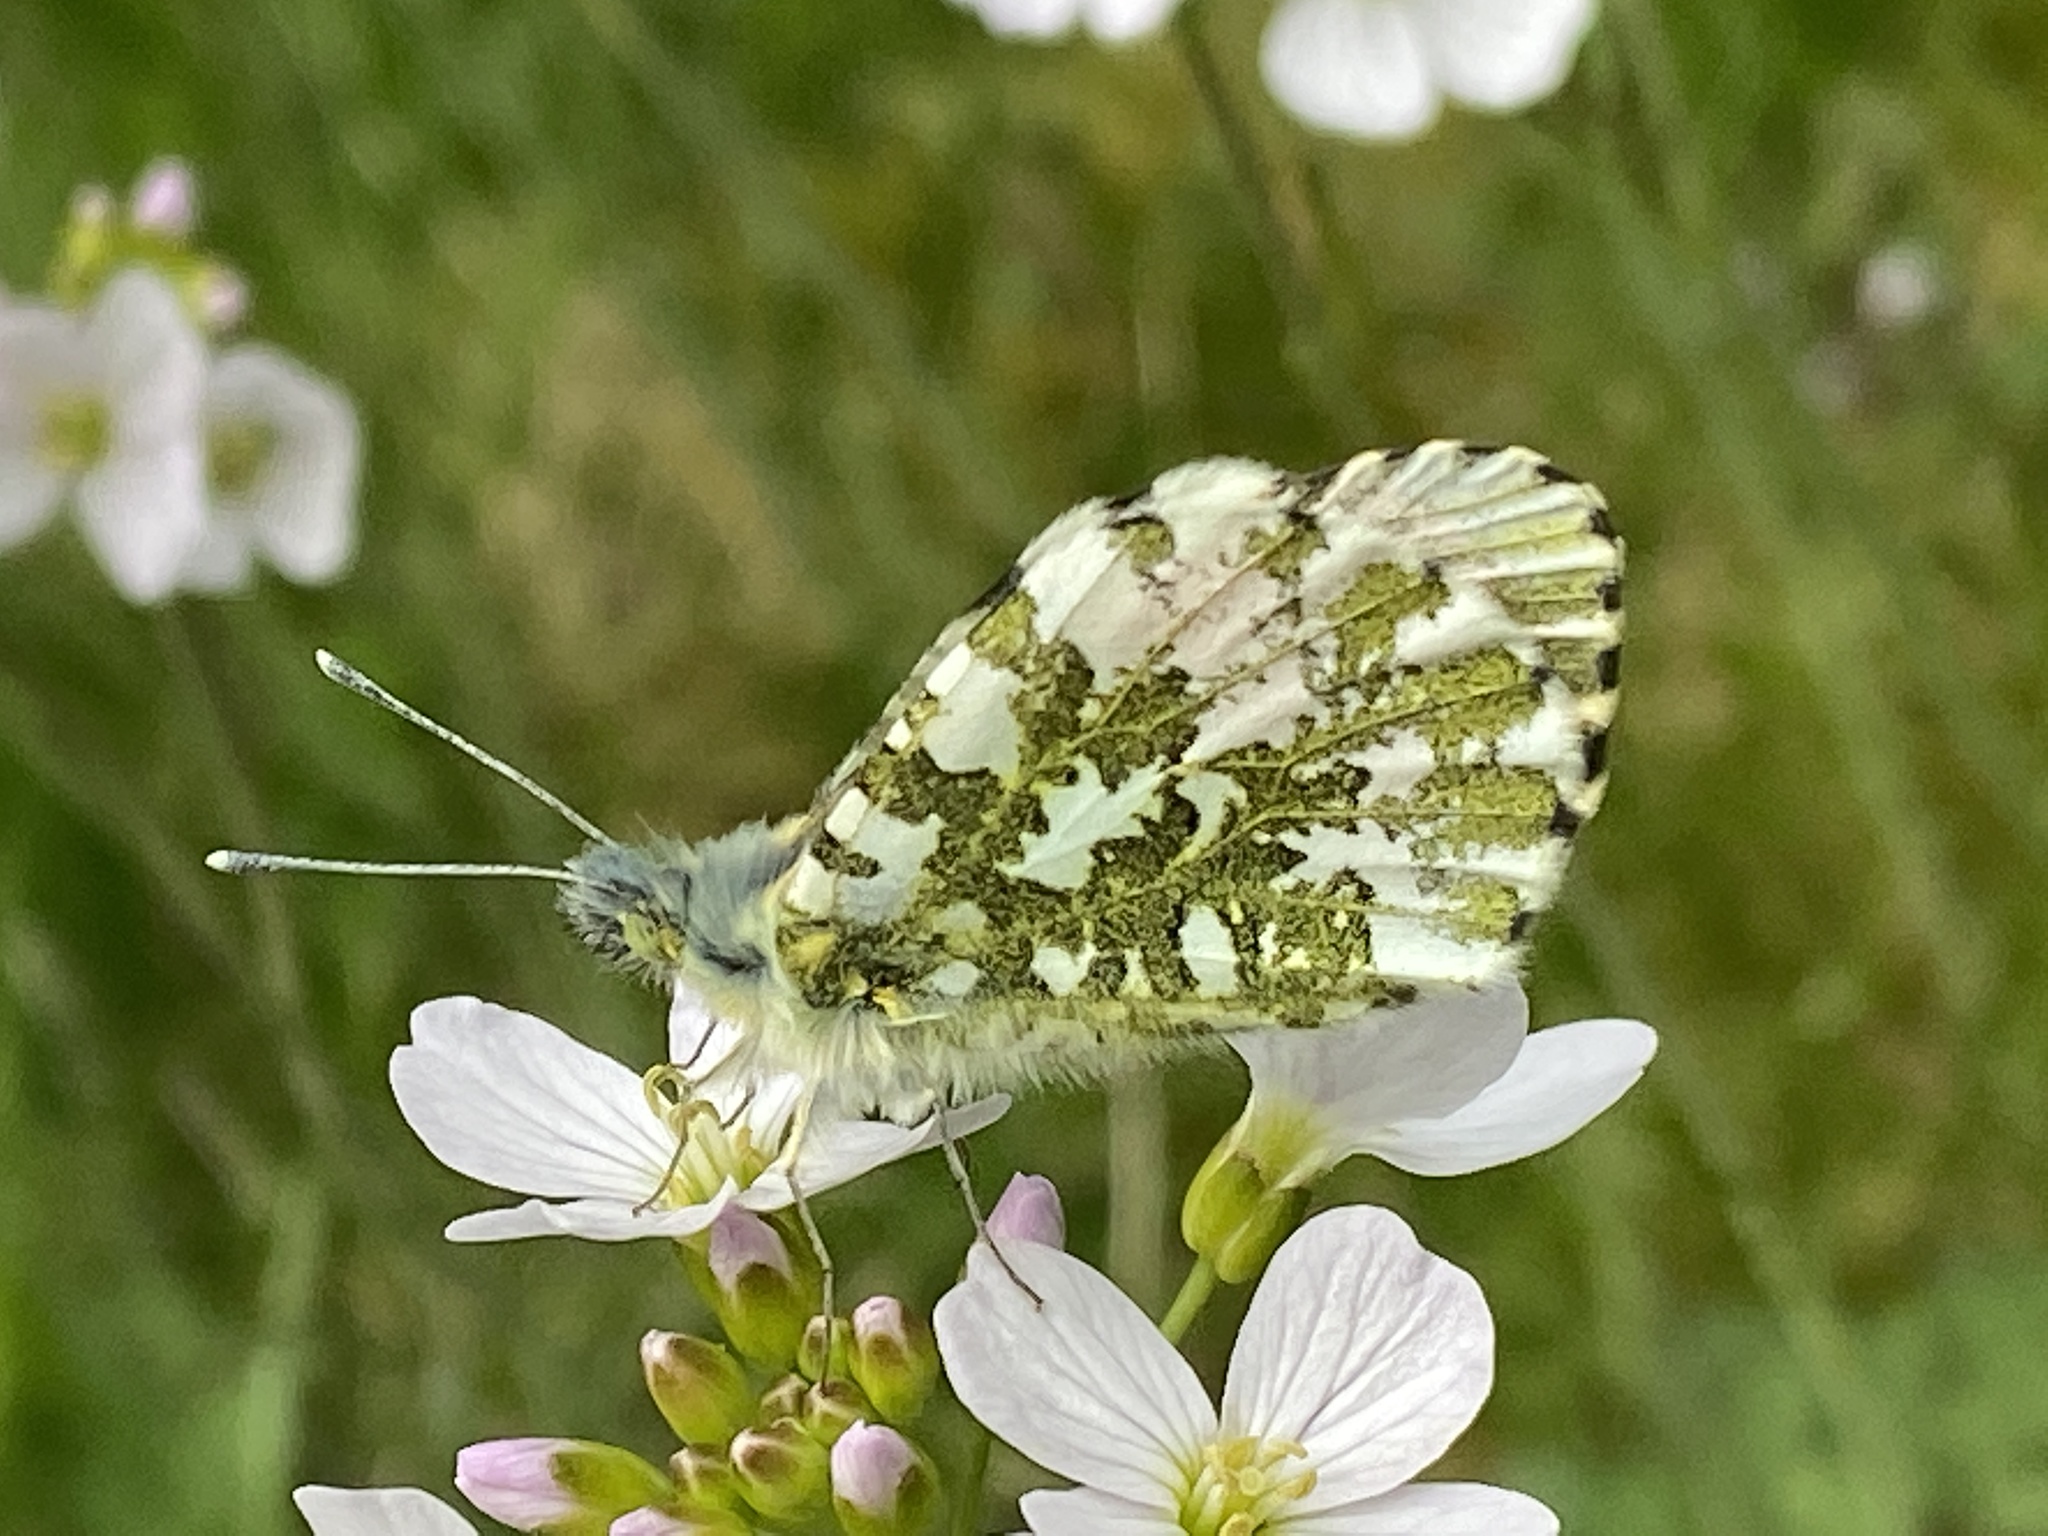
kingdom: Animalia
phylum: Arthropoda
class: Insecta
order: Lepidoptera
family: Pieridae
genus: Anthocharis
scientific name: Anthocharis cardamines
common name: Orange-tip
